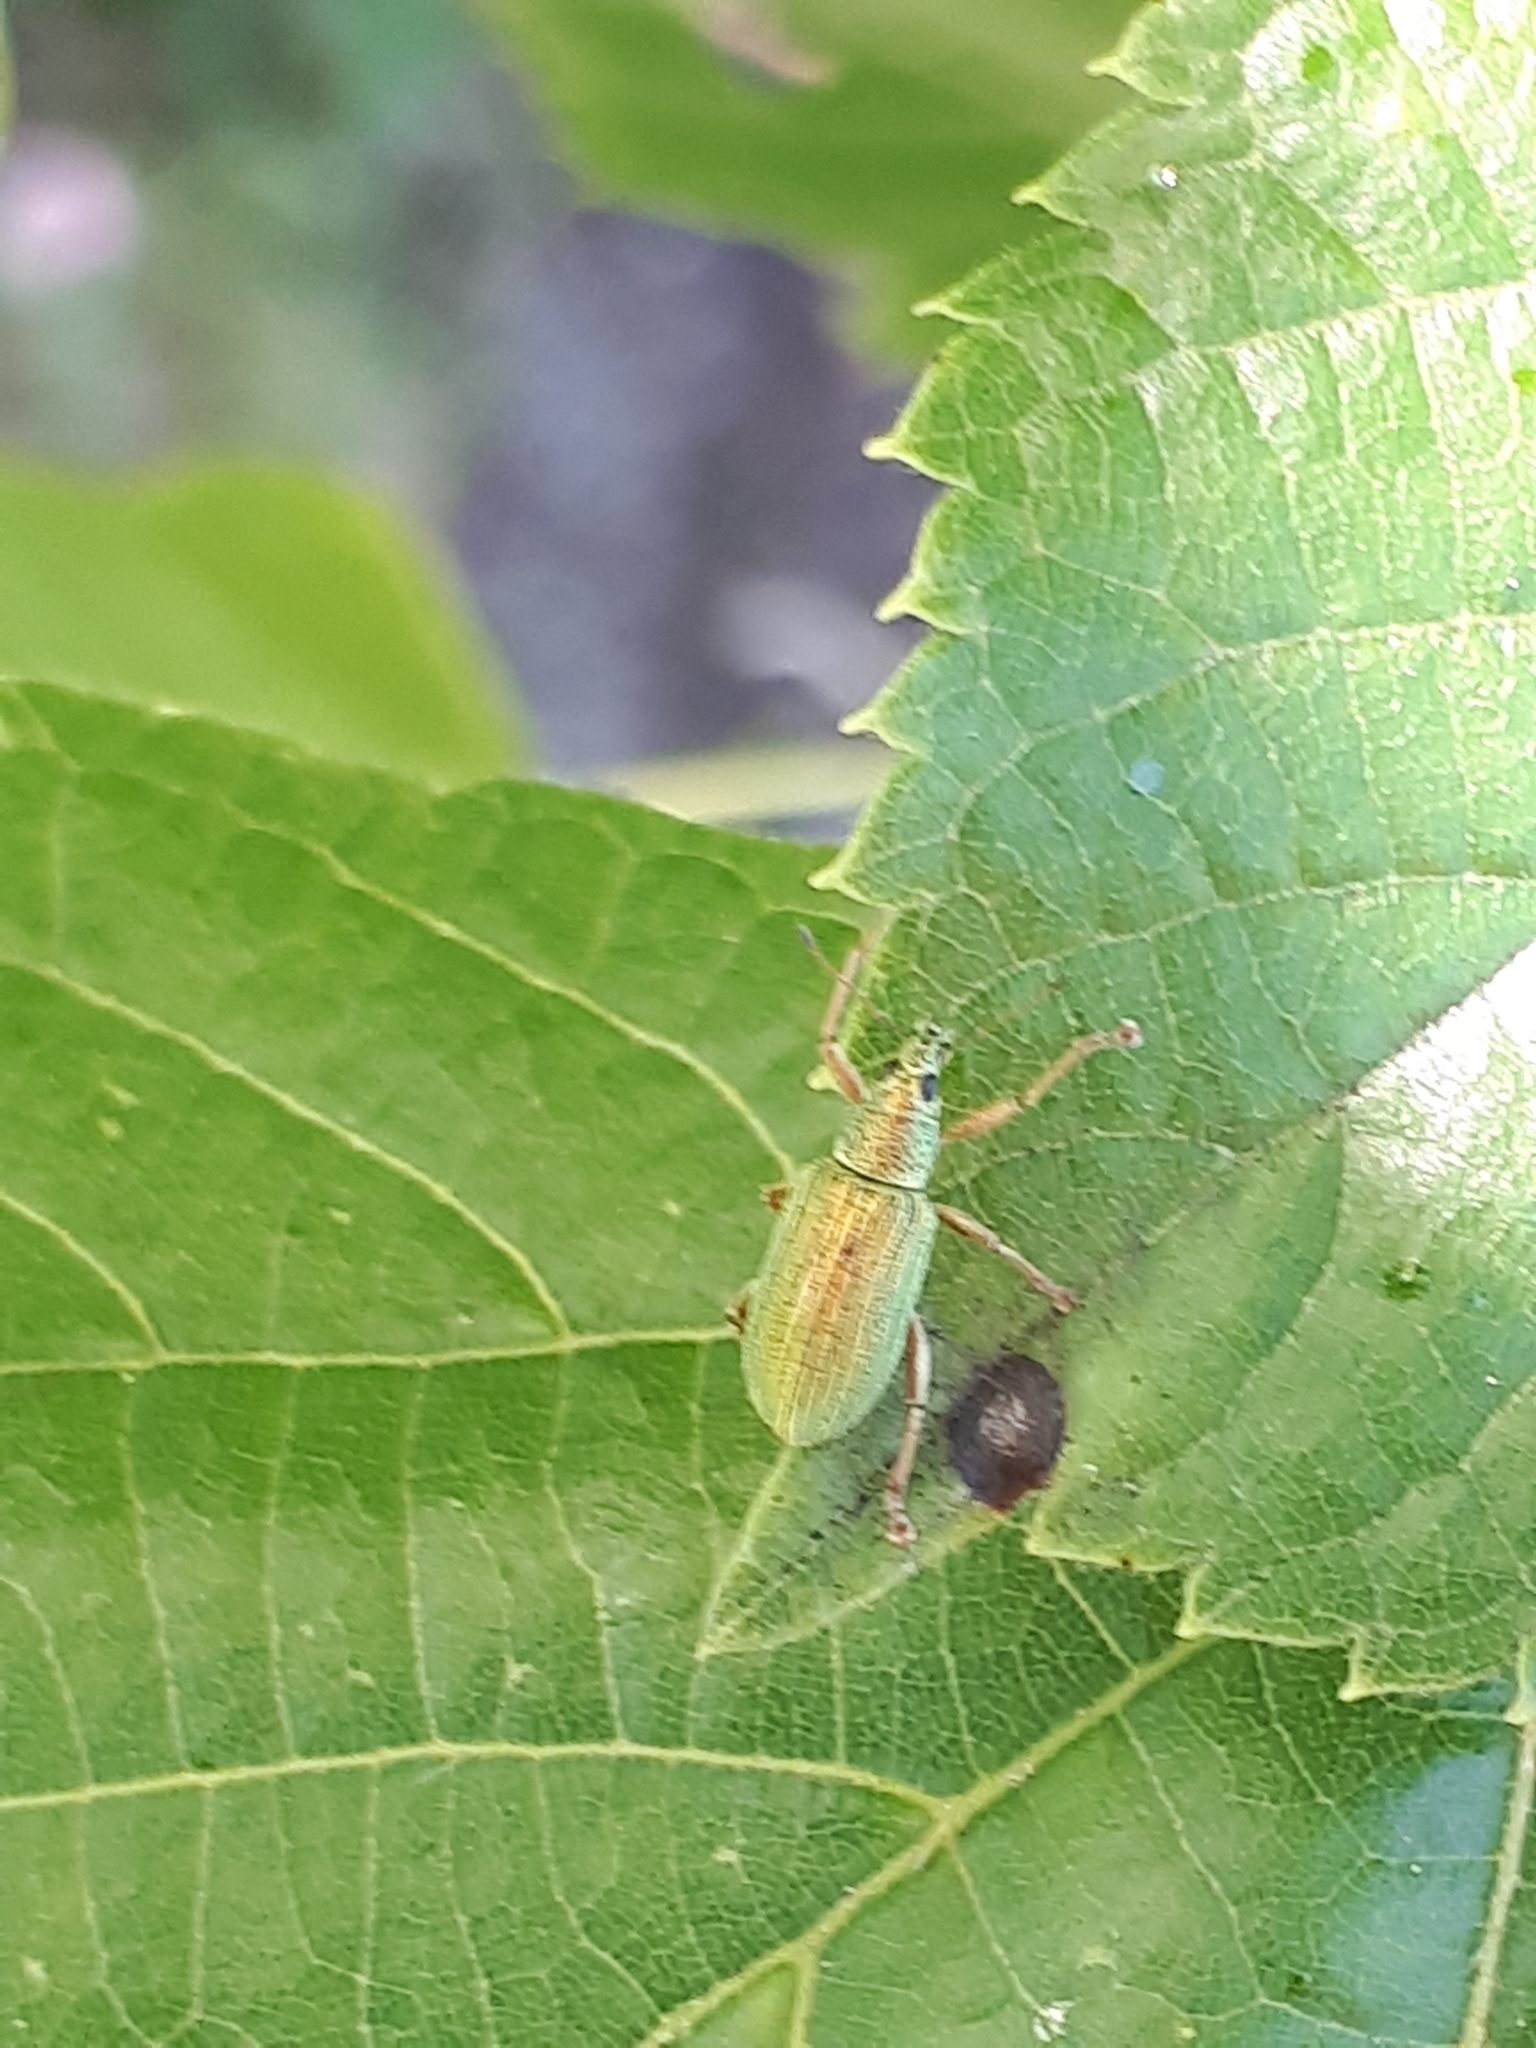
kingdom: Animalia
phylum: Arthropoda
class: Insecta
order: Coleoptera
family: Curculionidae
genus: Polydrusus
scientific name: Polydrusus formosus
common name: Weevil
